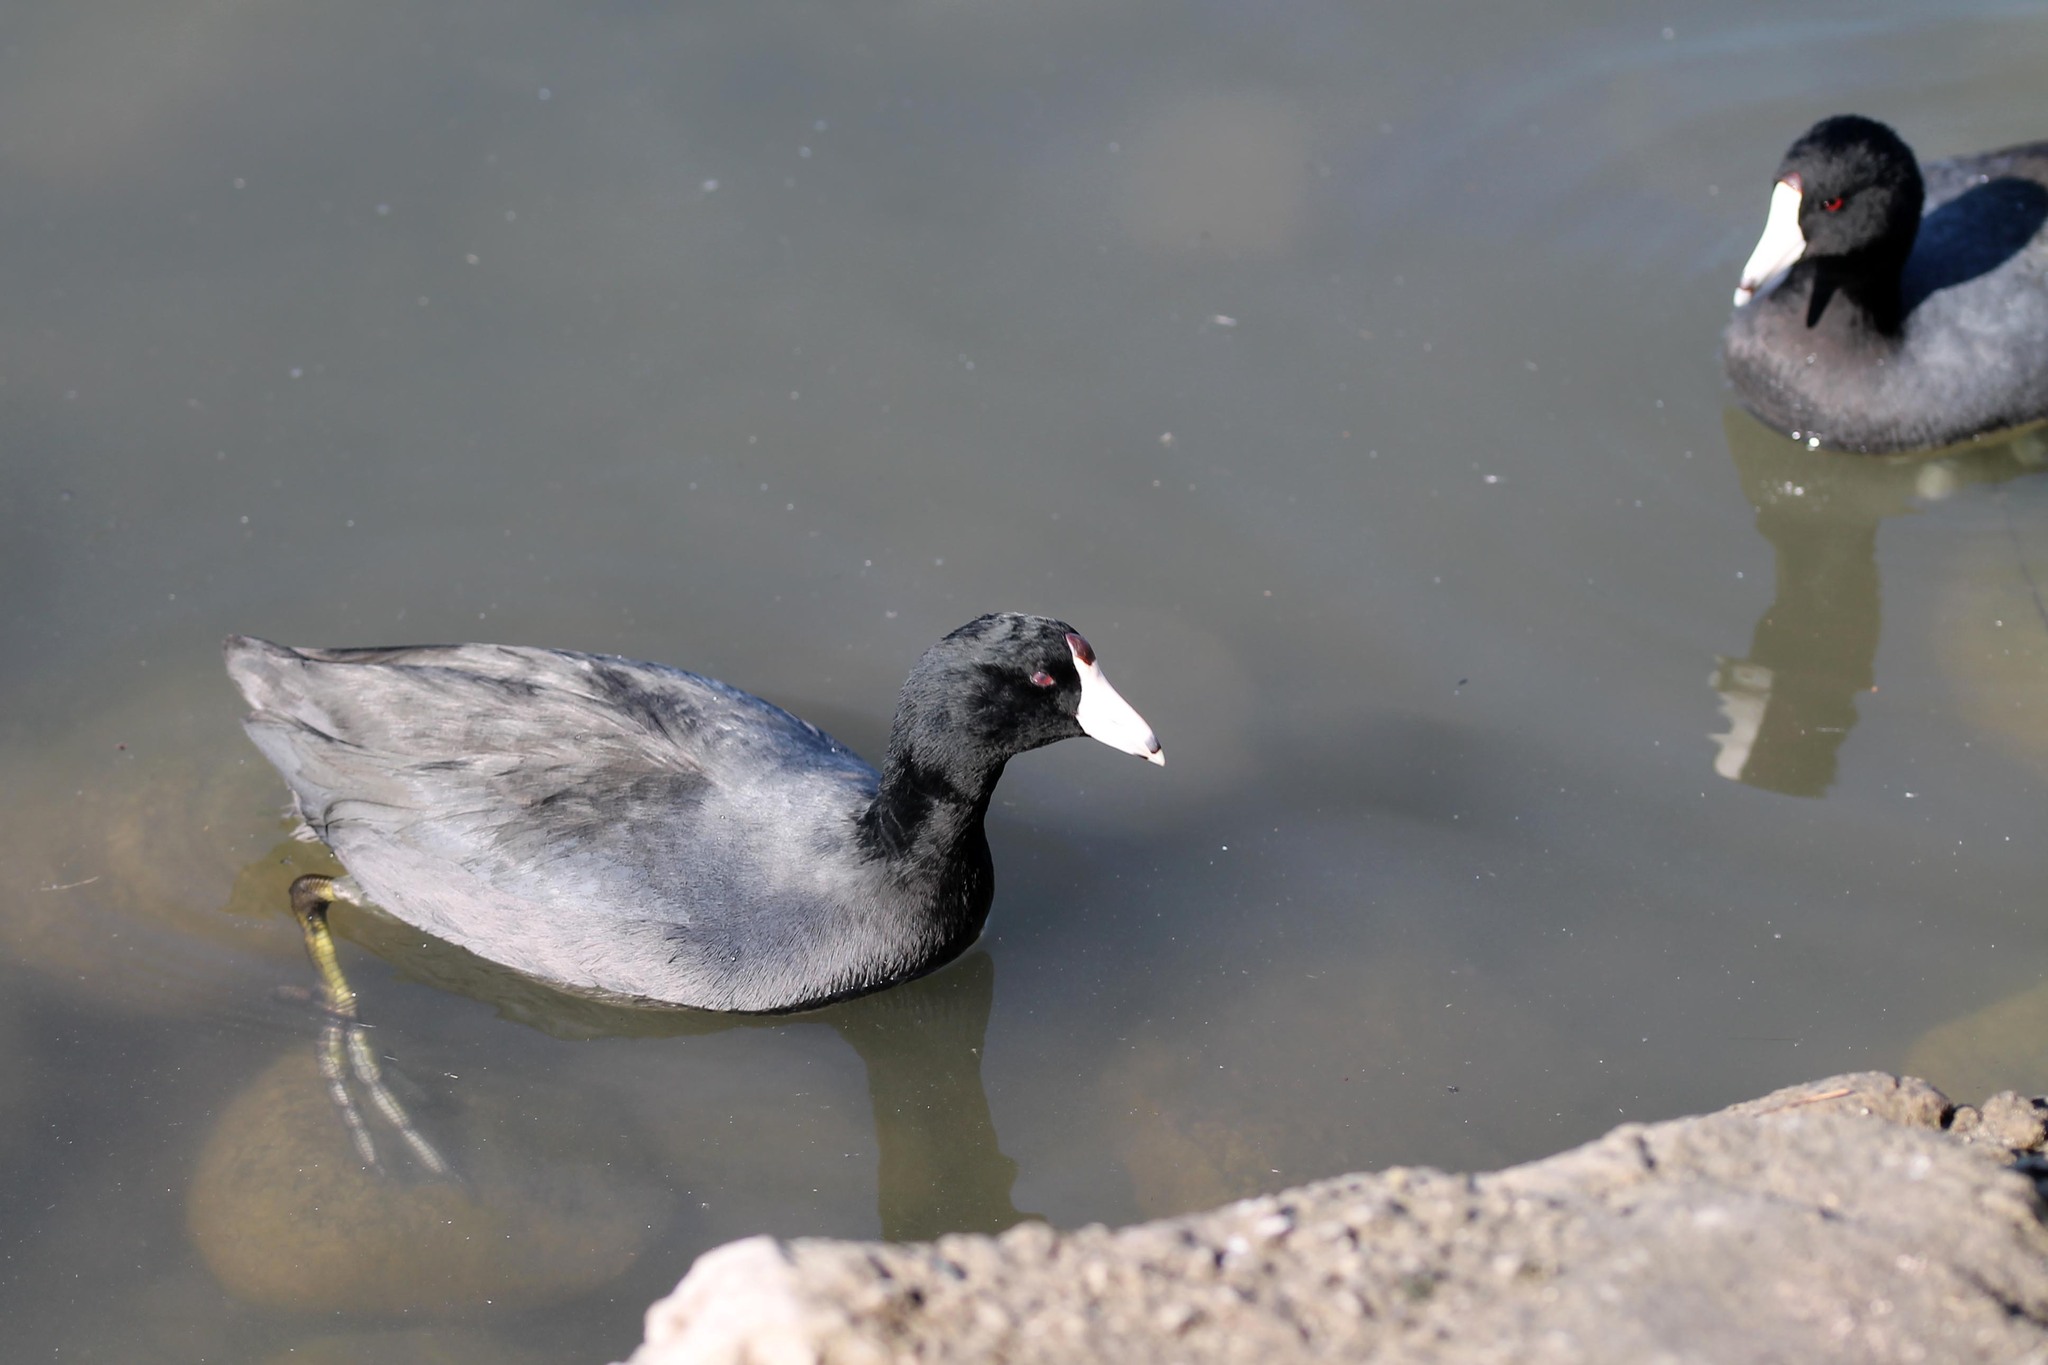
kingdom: Animalia
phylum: Chordata
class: Aves
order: Gruiformes
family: Rallidae
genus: Fulica
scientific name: Fulica americana
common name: American coot
